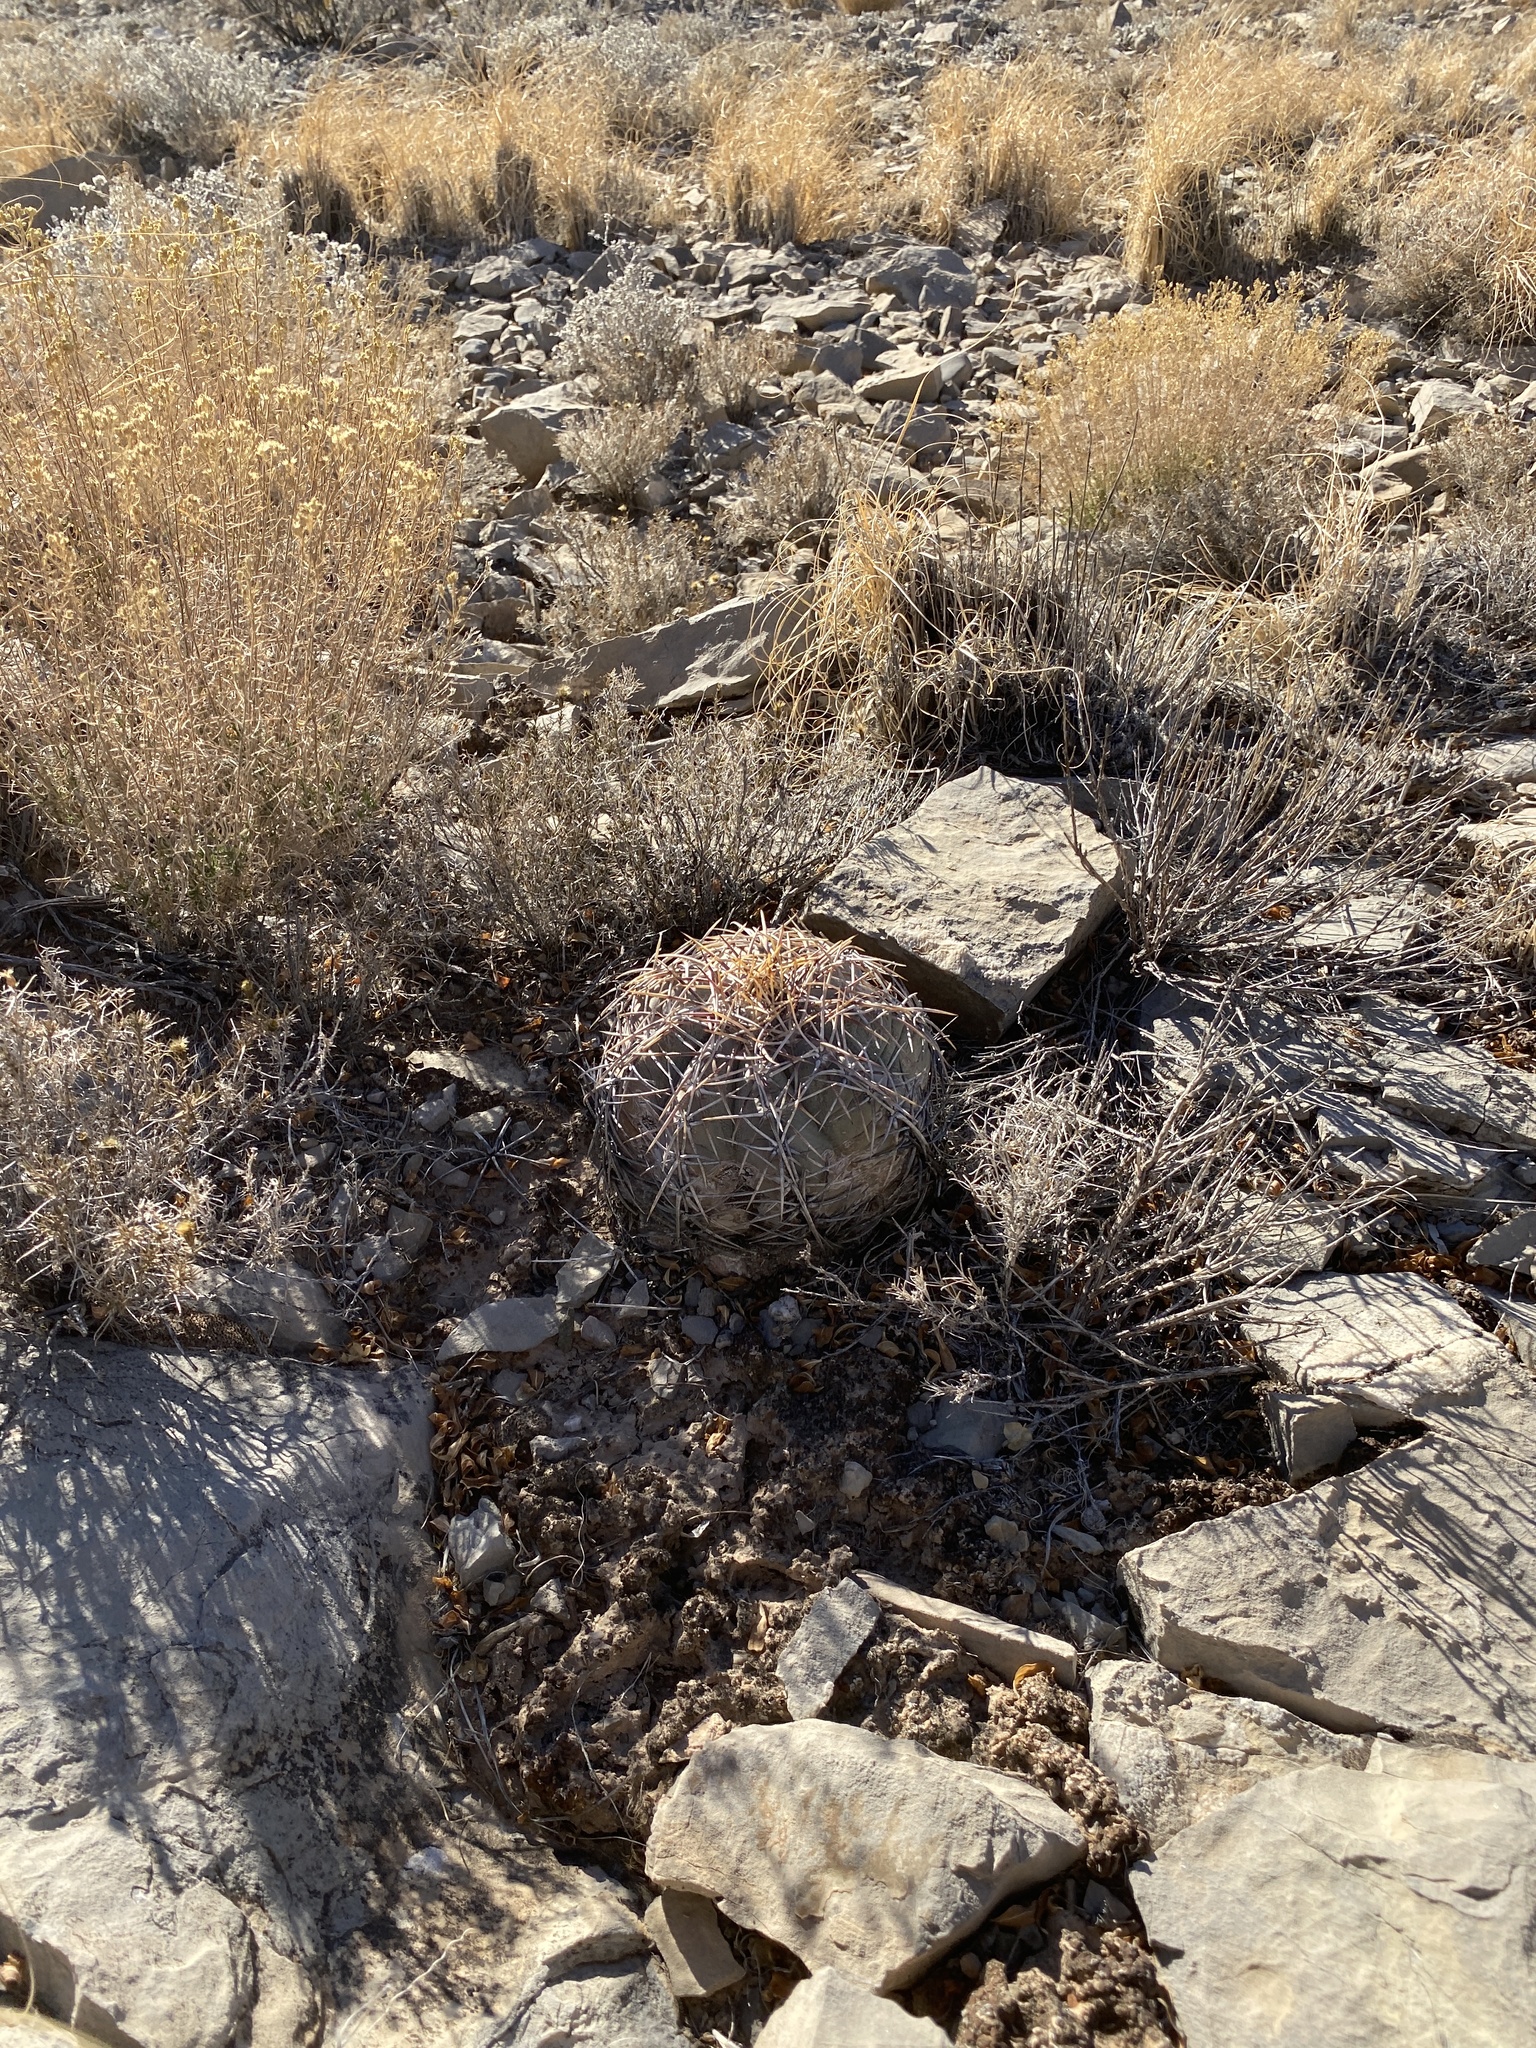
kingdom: Plantae
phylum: Tracheophyta
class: Magnoliopsida
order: Caryophyllales
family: Cactaceae
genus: Echinocactus
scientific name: Echinocactus horizonthalonius
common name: Devilshead
